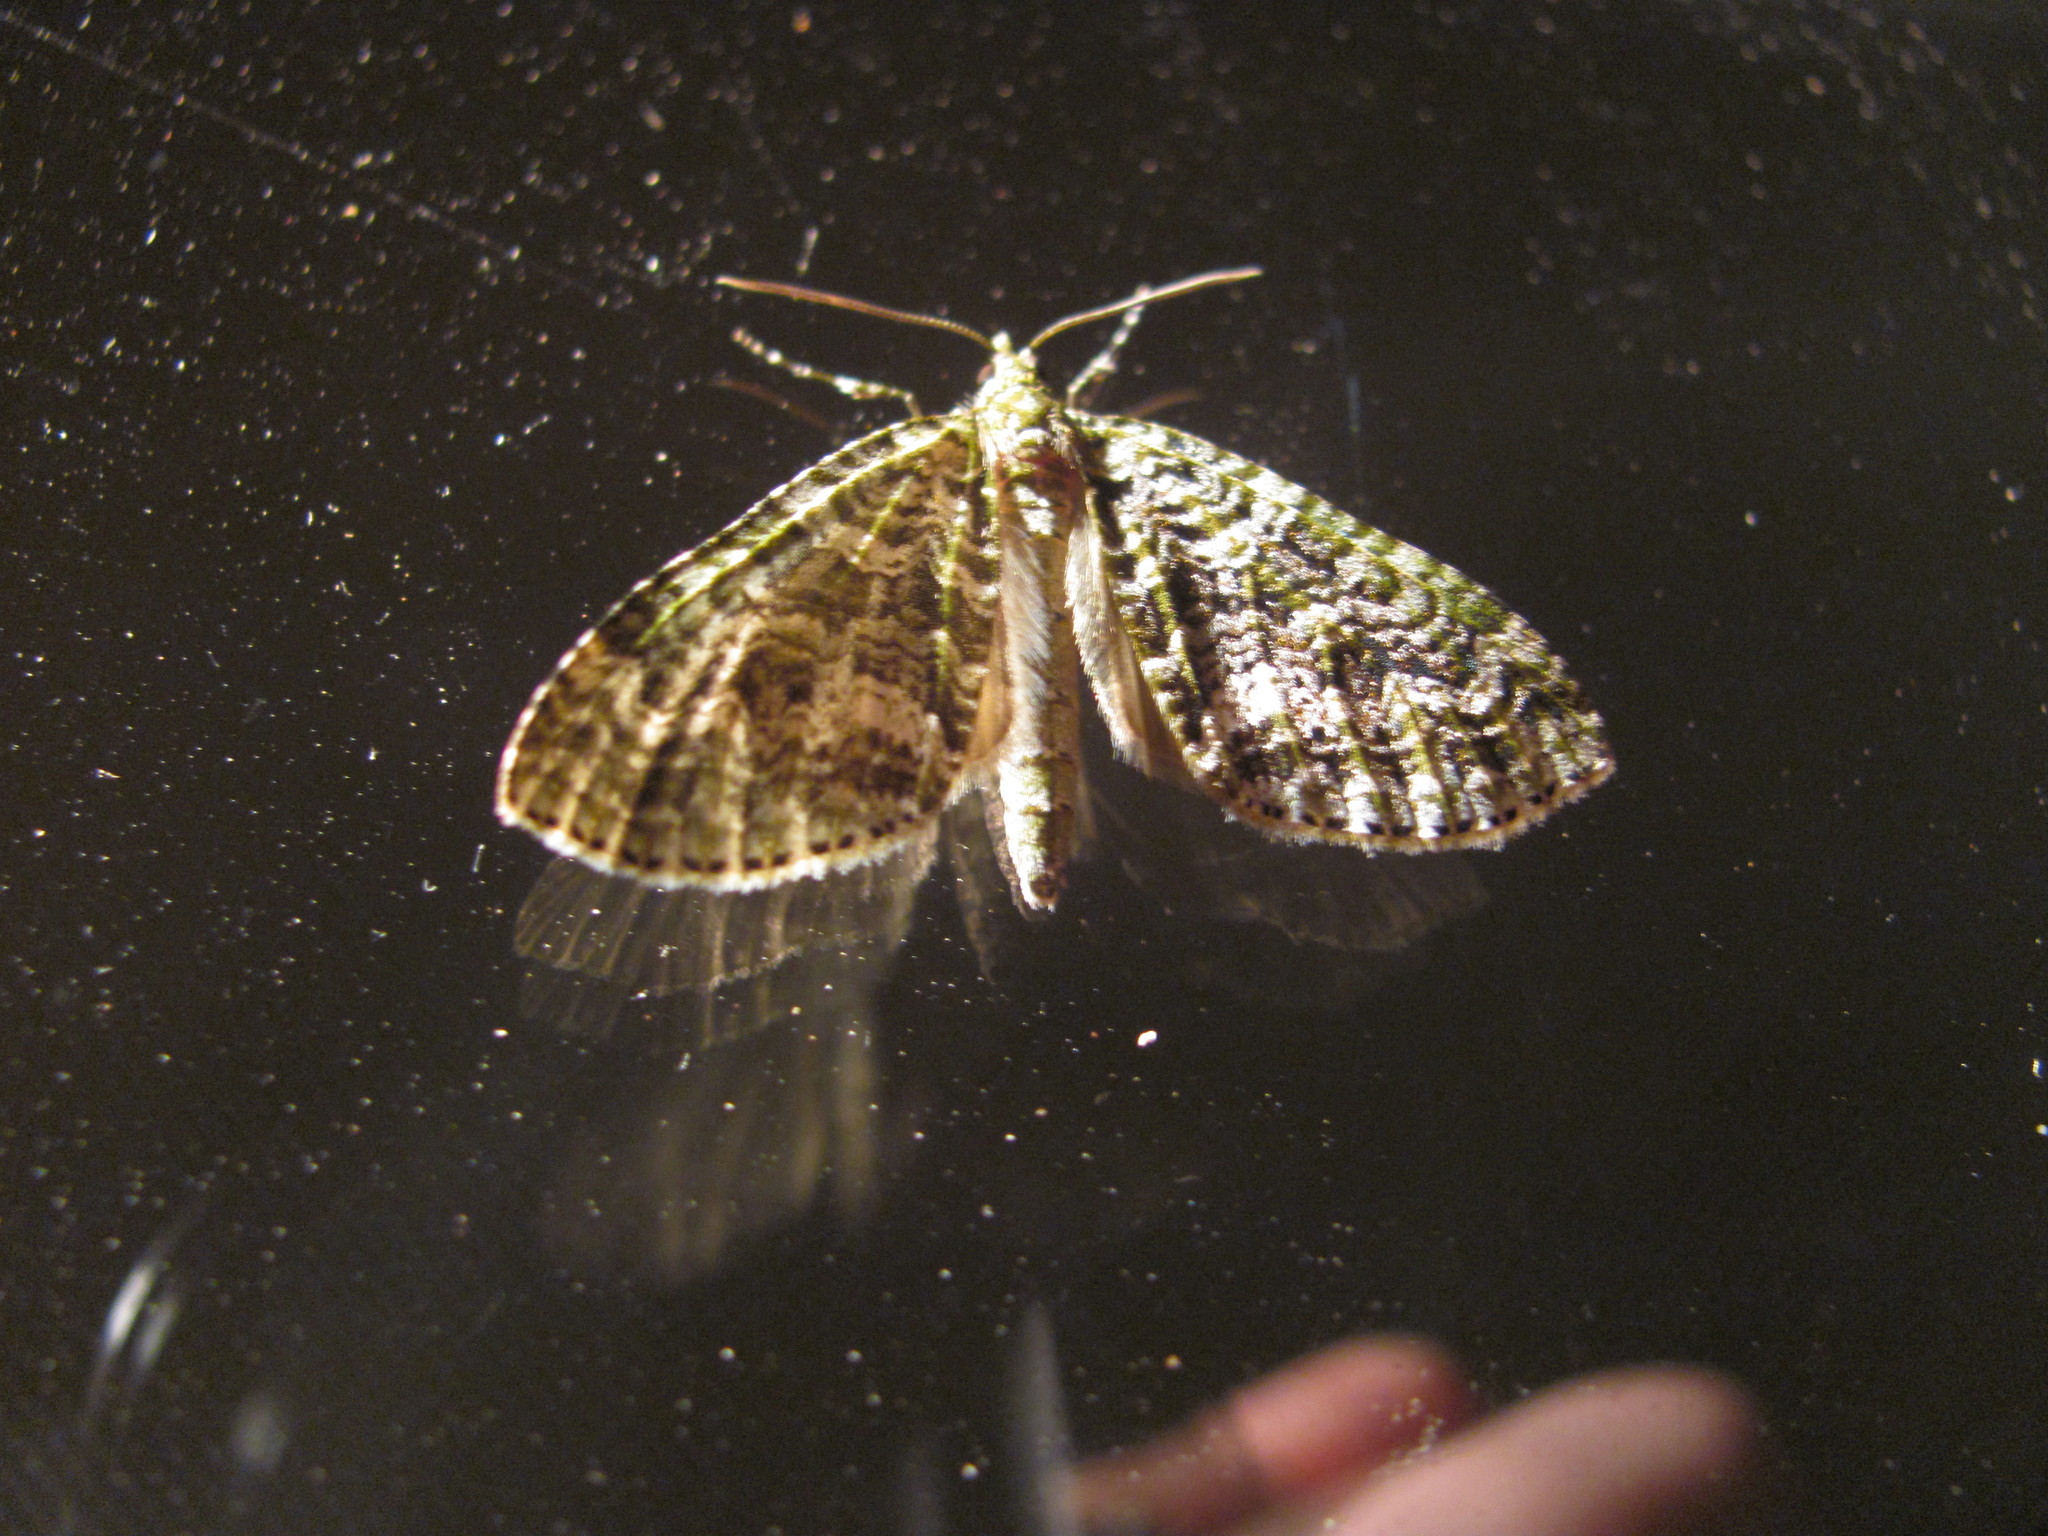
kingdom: Animalia
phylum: Arthropoda
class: Insecta
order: Lepidoptera
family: Geometridae
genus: Tatosoma
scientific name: Tatosoma agrionata
